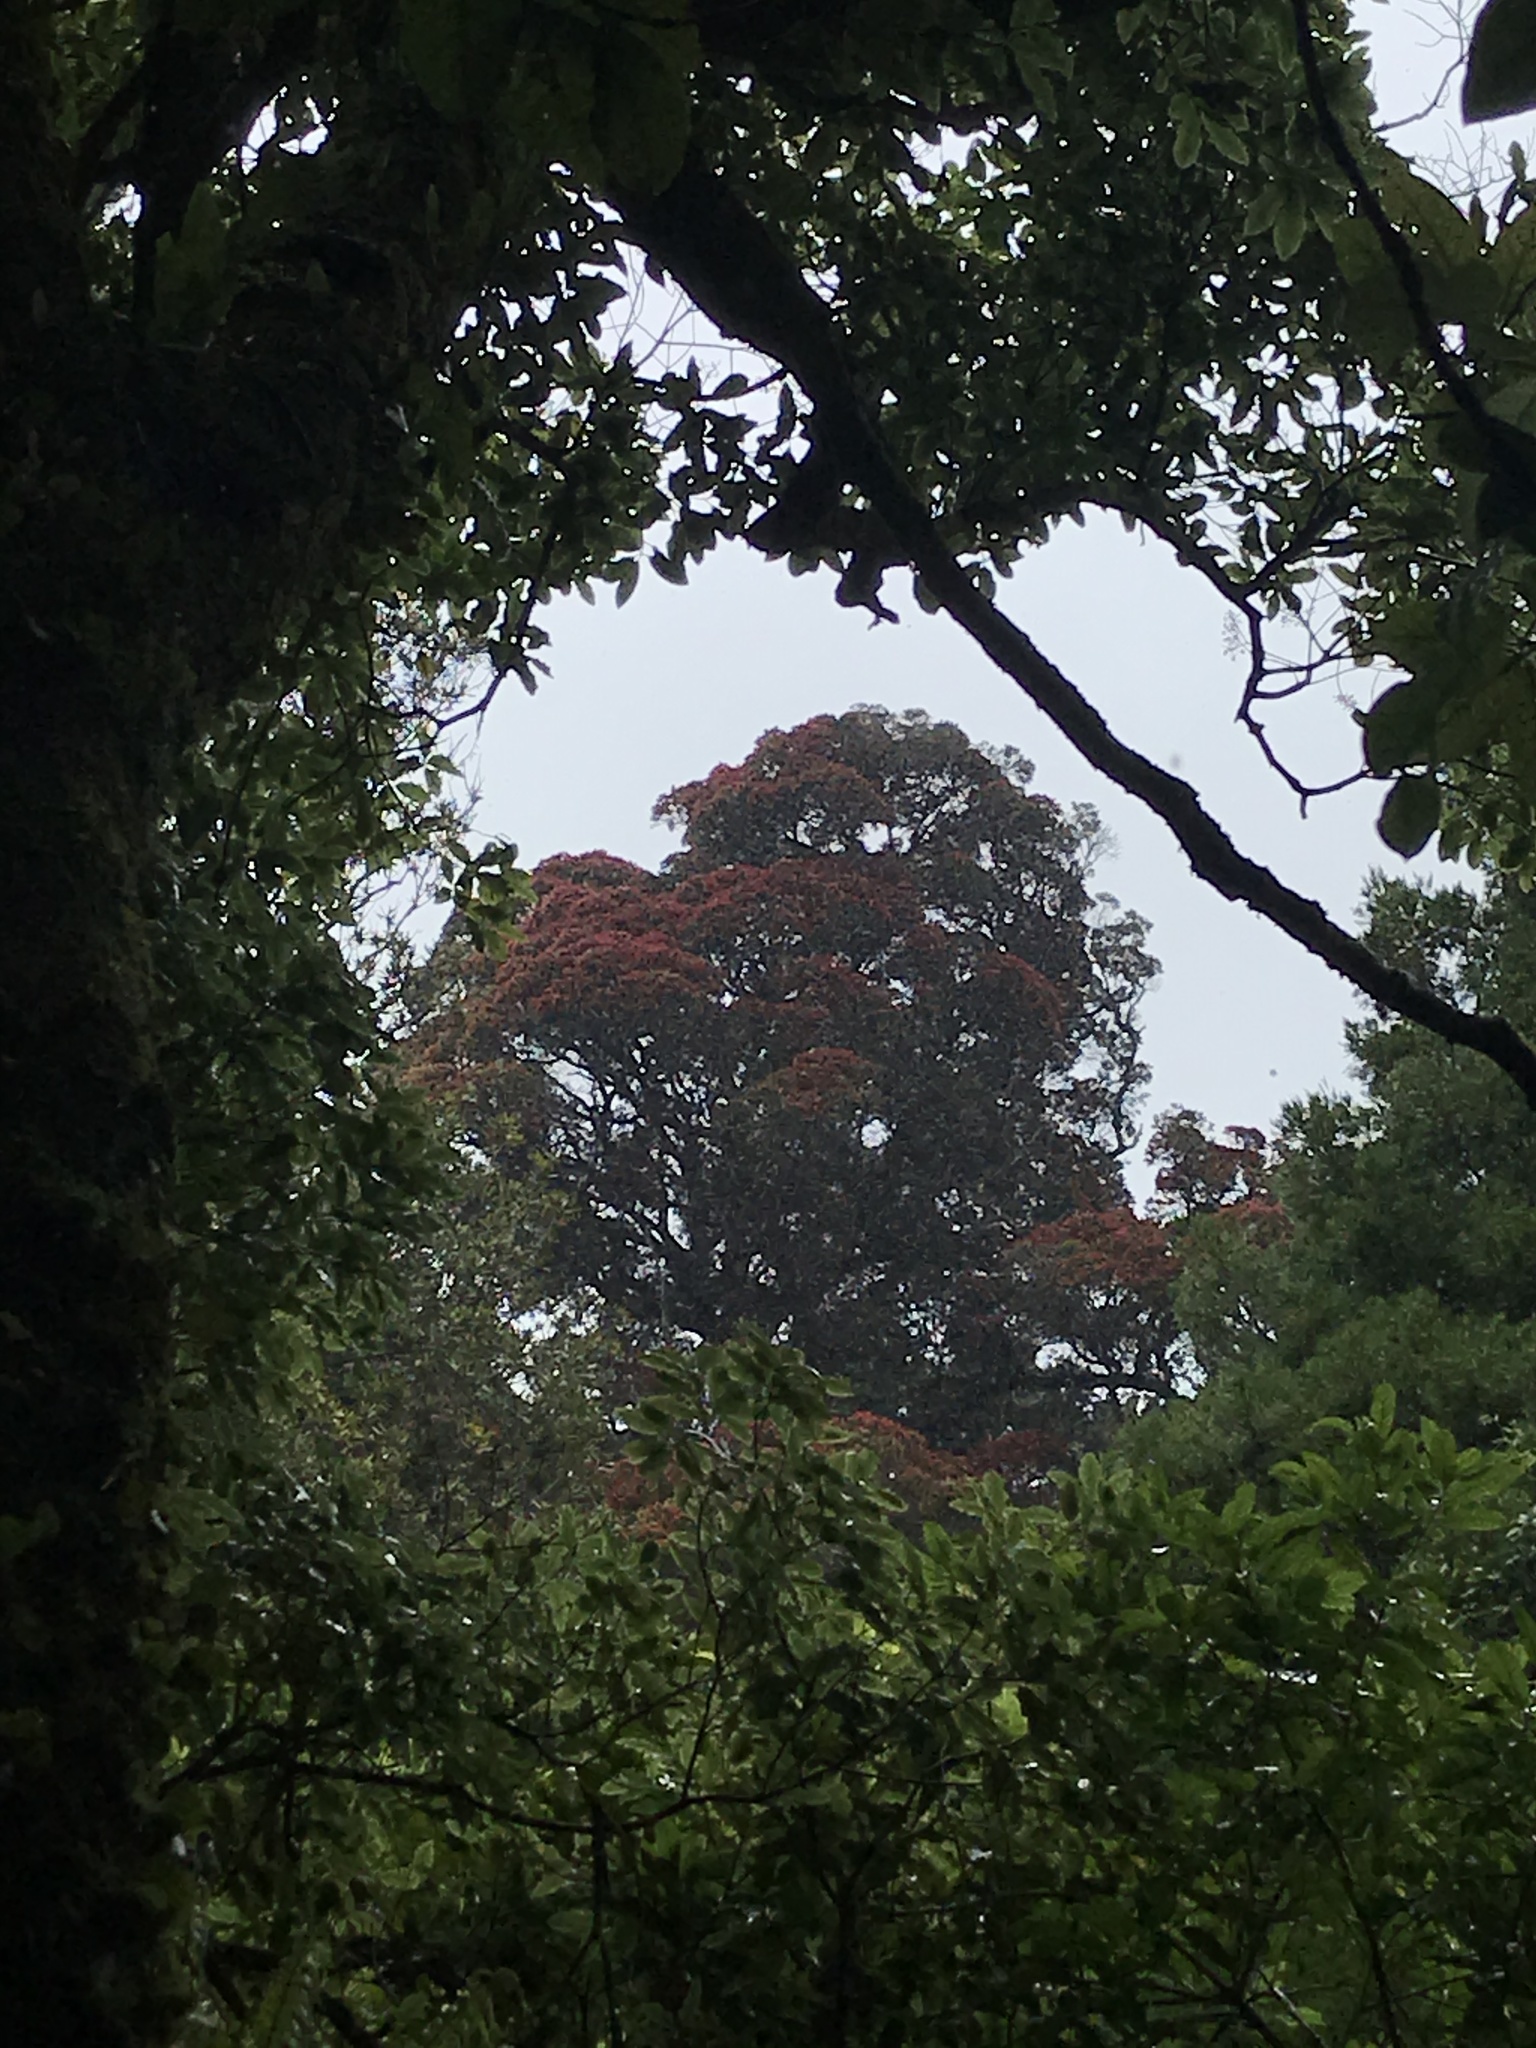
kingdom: Plantae
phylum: Tracheophyta
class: Magnoliopsida
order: Myrtales
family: Myrtaceae
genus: Metrosideros
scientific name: Metrosideros robusta
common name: Northern rata
